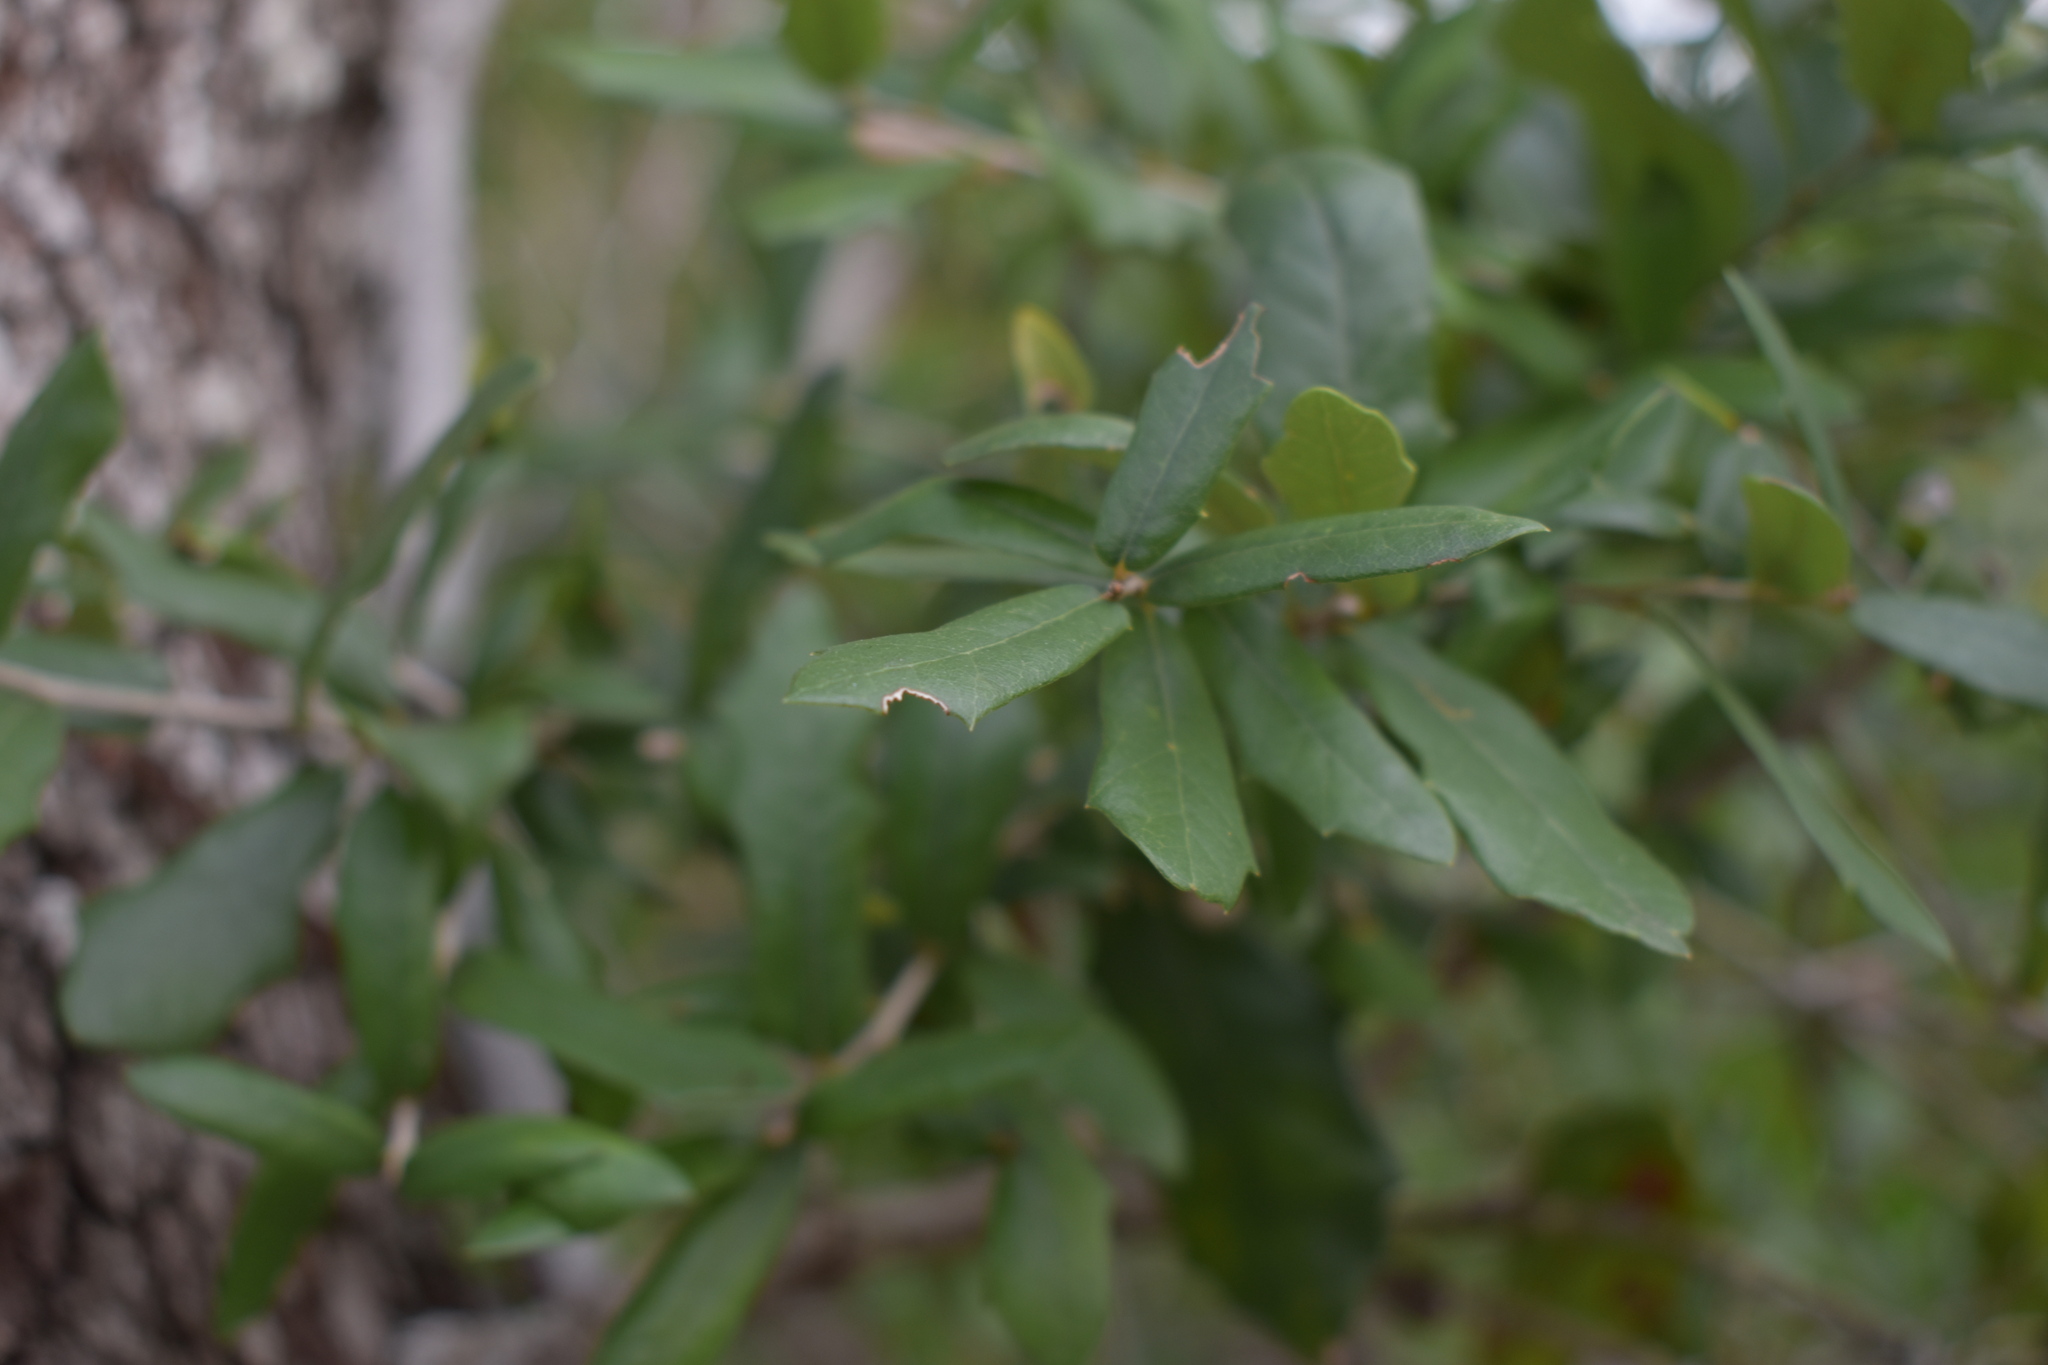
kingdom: Plantae
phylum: Tracheophyta
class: Magnoliopsida
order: Fagales
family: Fagaceae
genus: Quercus
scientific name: Quercus virginiana
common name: Southern live oak
